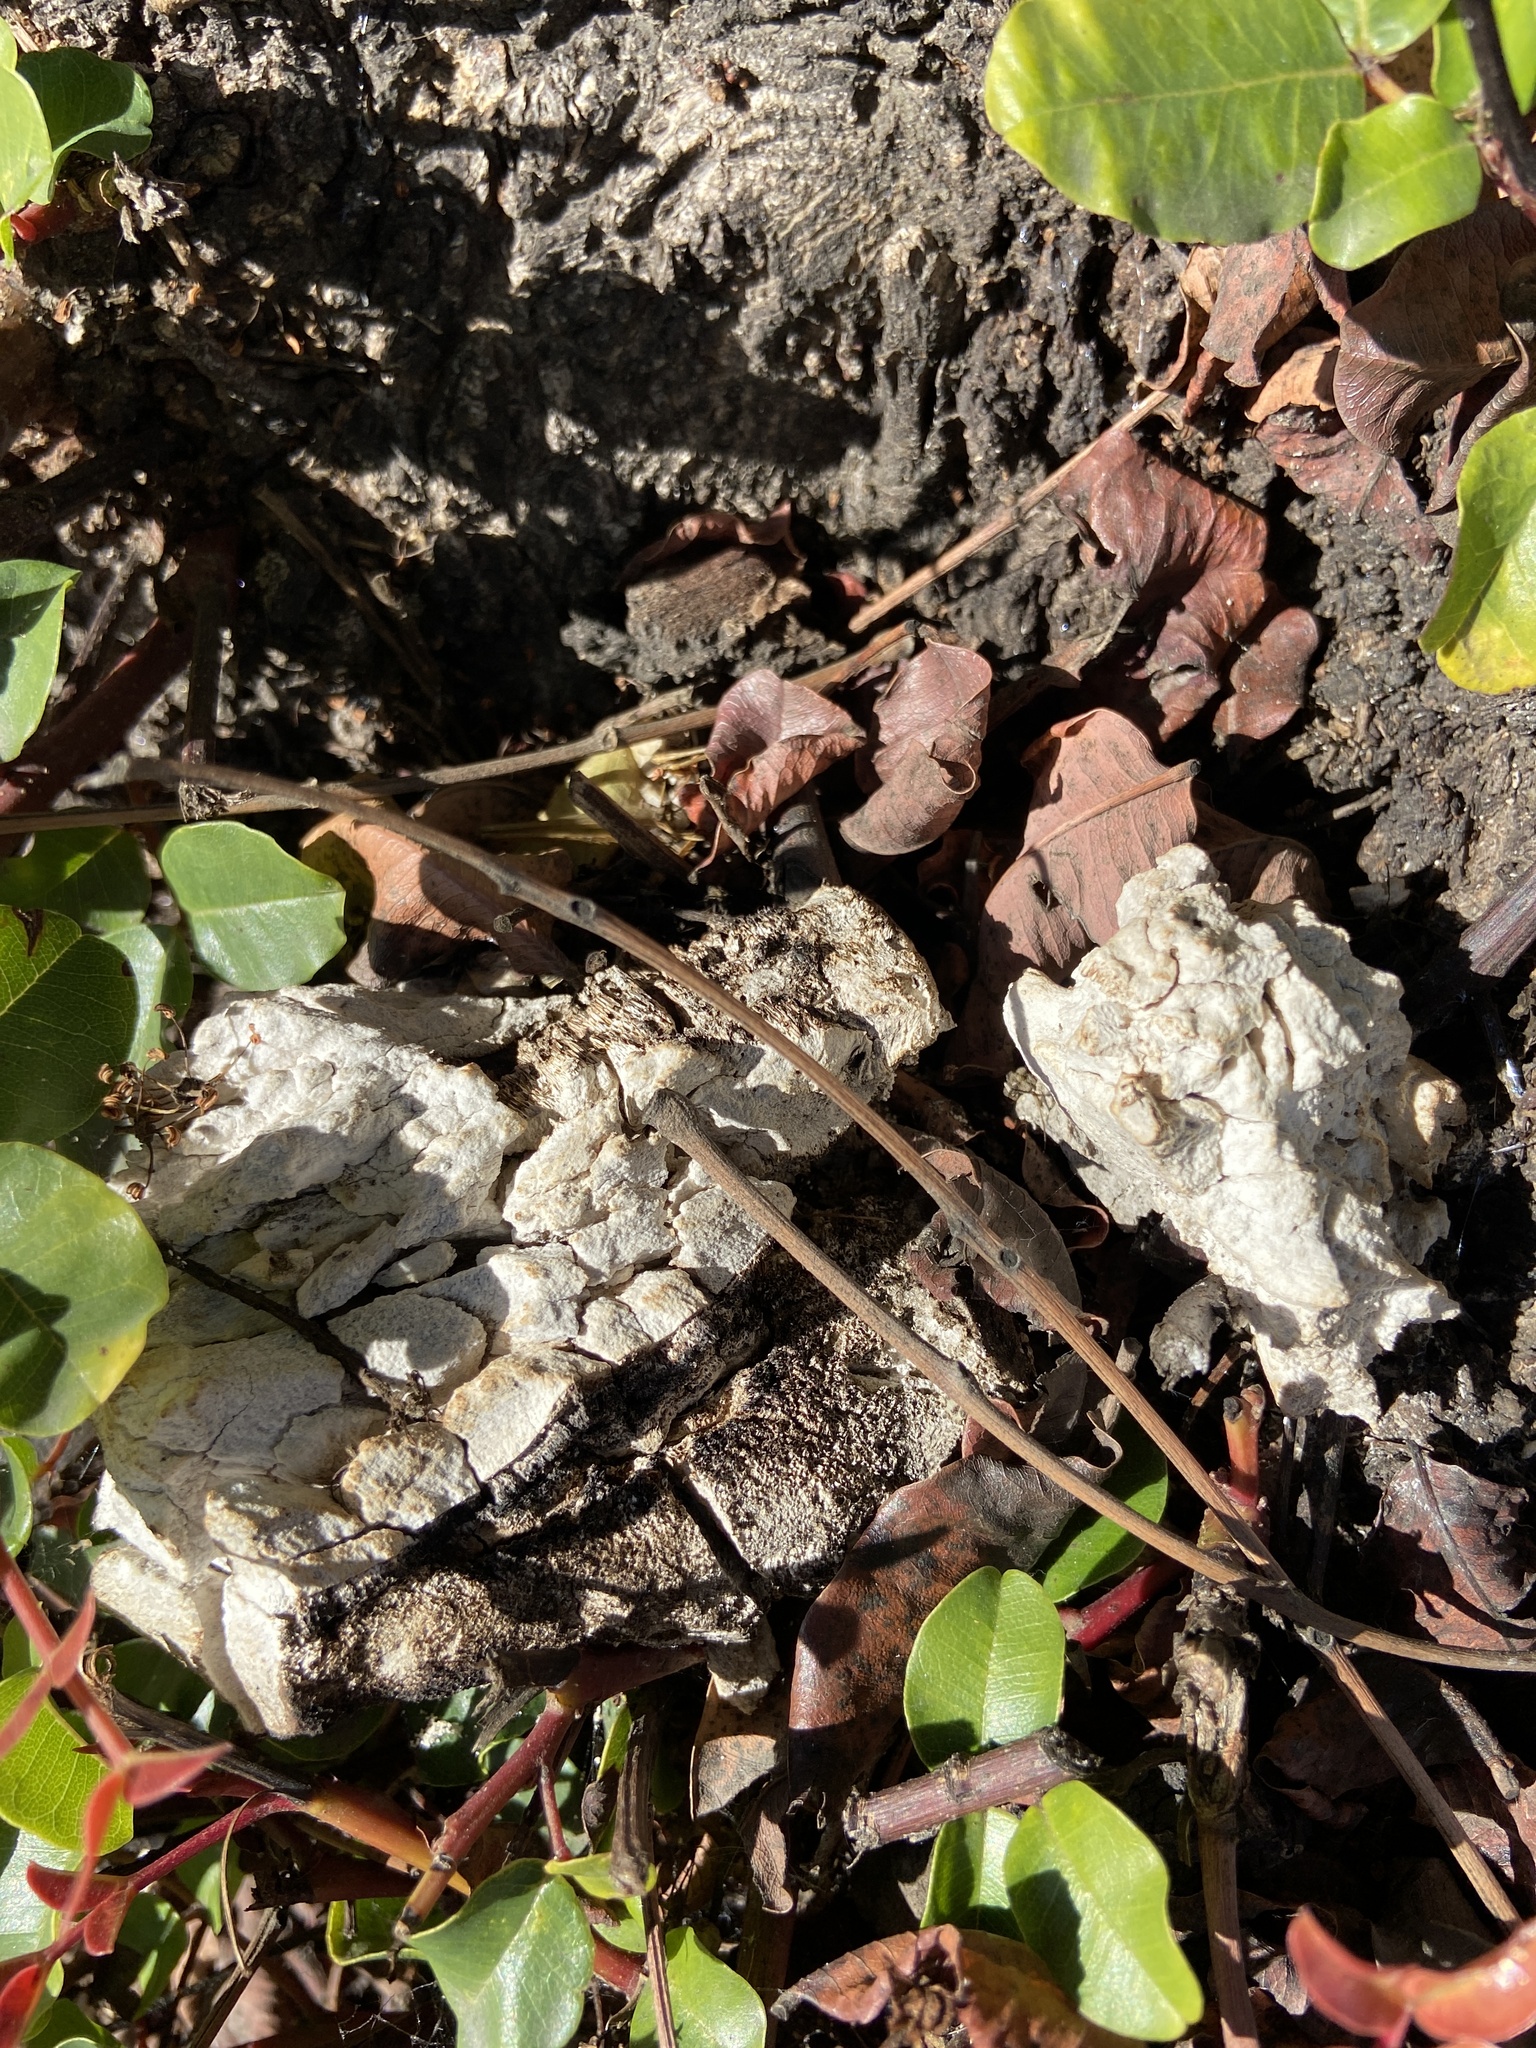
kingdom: Fungi
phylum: Basidiomycota
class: Agaricomycetes
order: Polyporales
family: Laetiporaceae
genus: Laetiporus
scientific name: Laetiporus gilbertsonii
